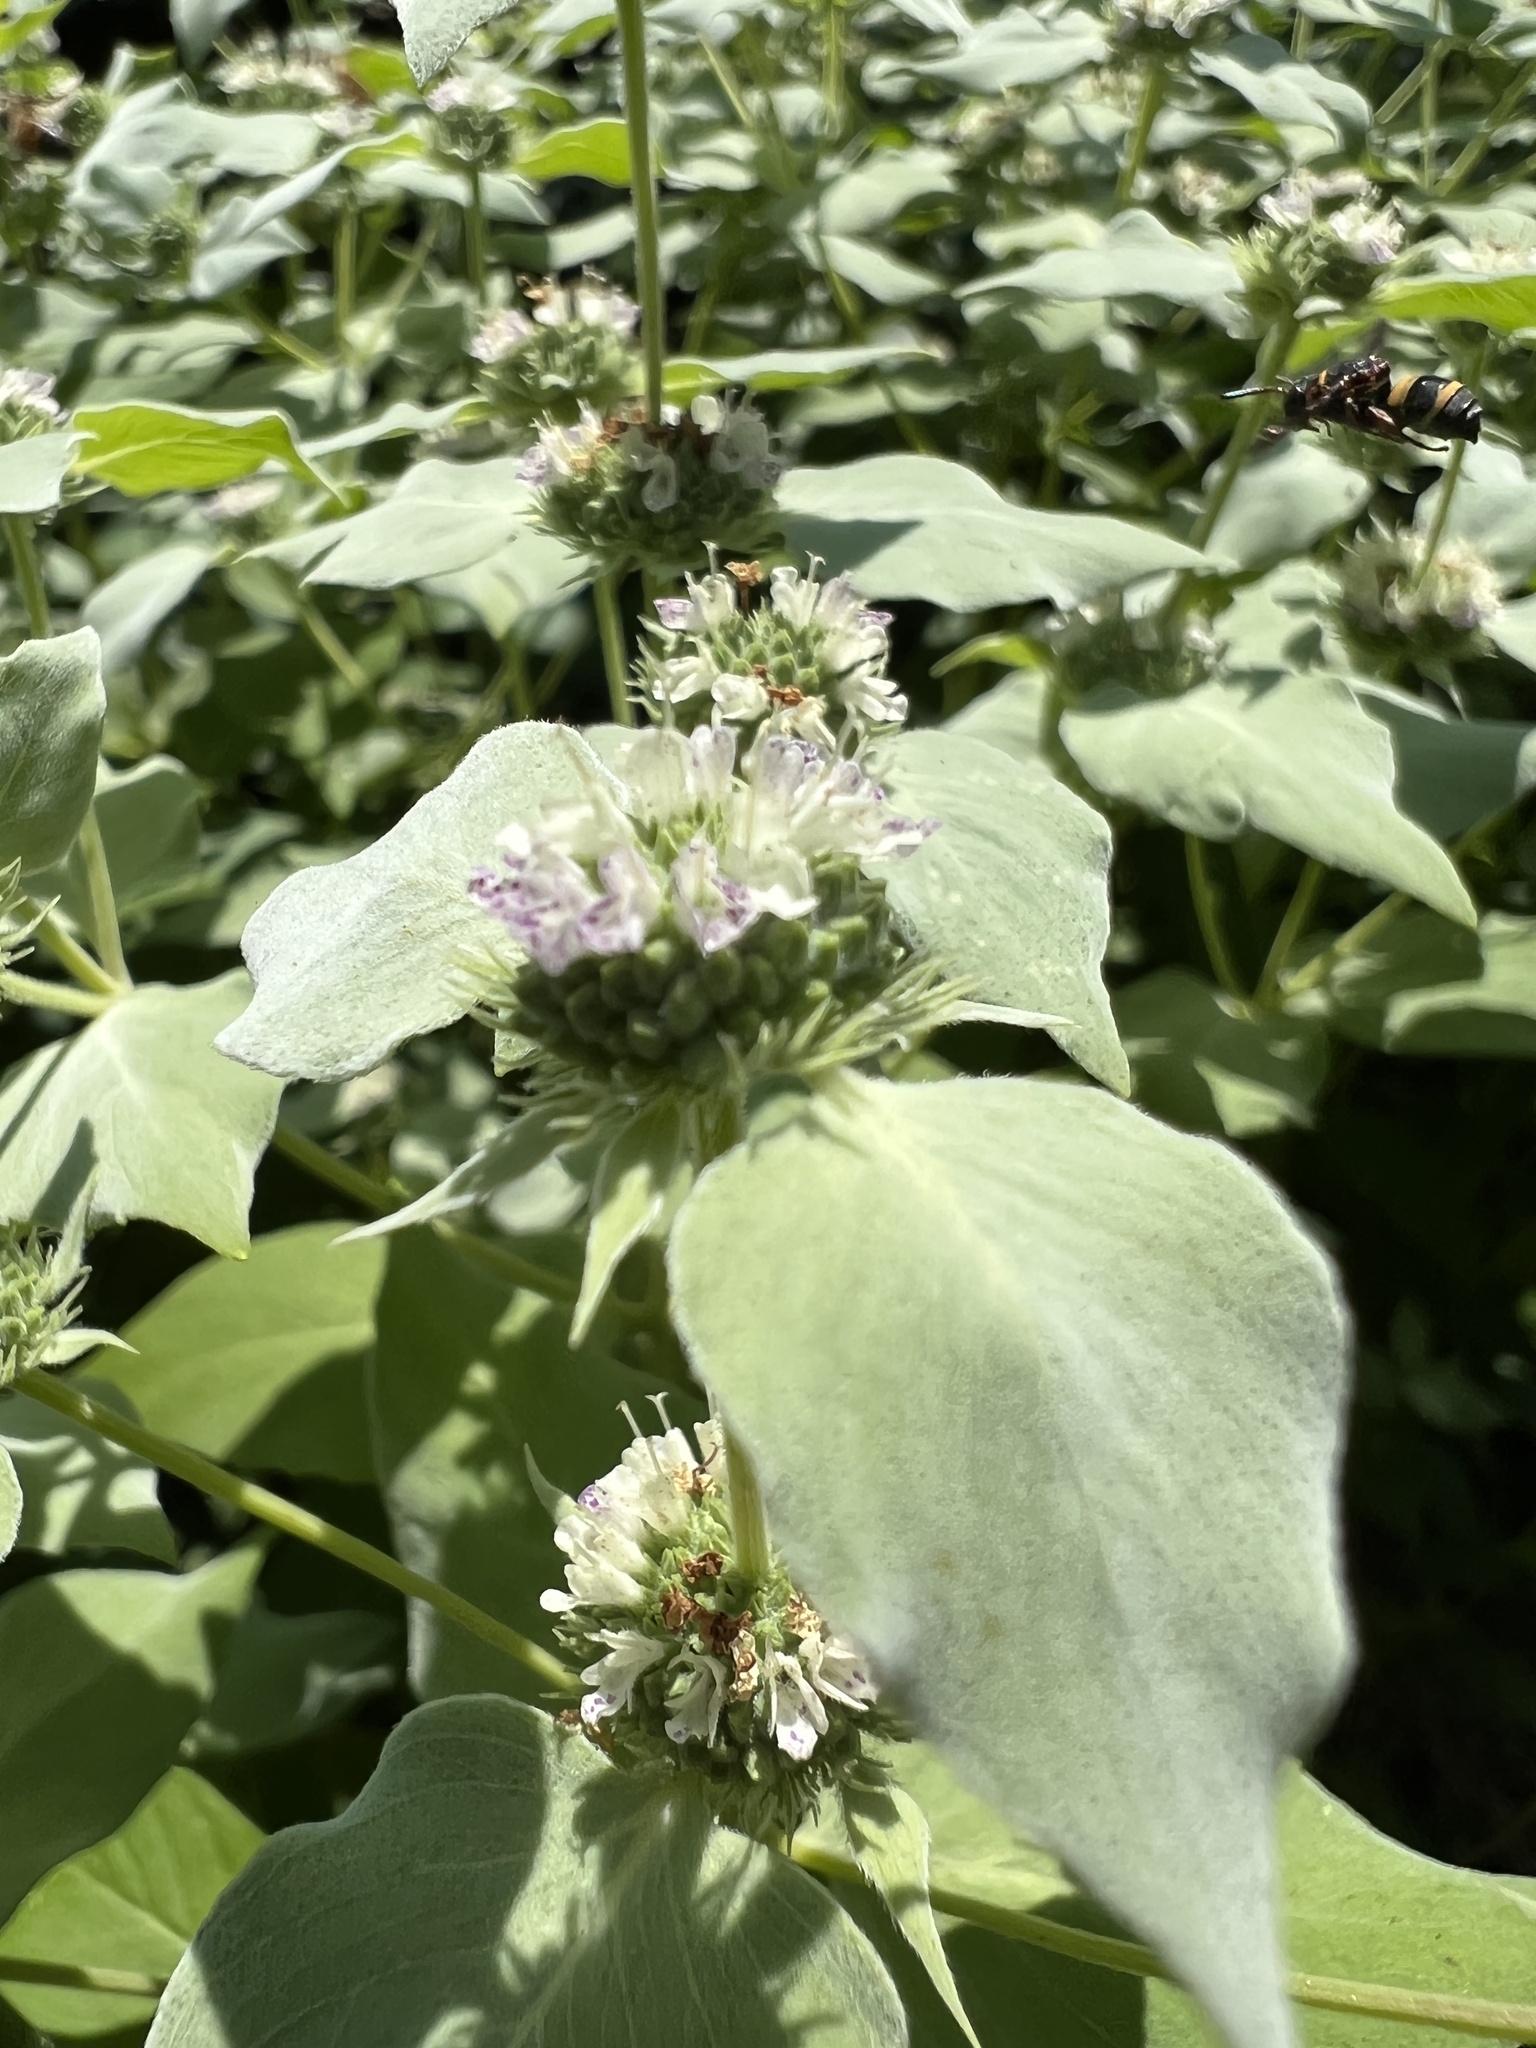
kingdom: Animalia
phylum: Arthropoda
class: Insecta
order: Hymenoptera
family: Apidae
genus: Epeolus
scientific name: Epeolus bifasciatus
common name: Two-banded cellophane-cuckoo
